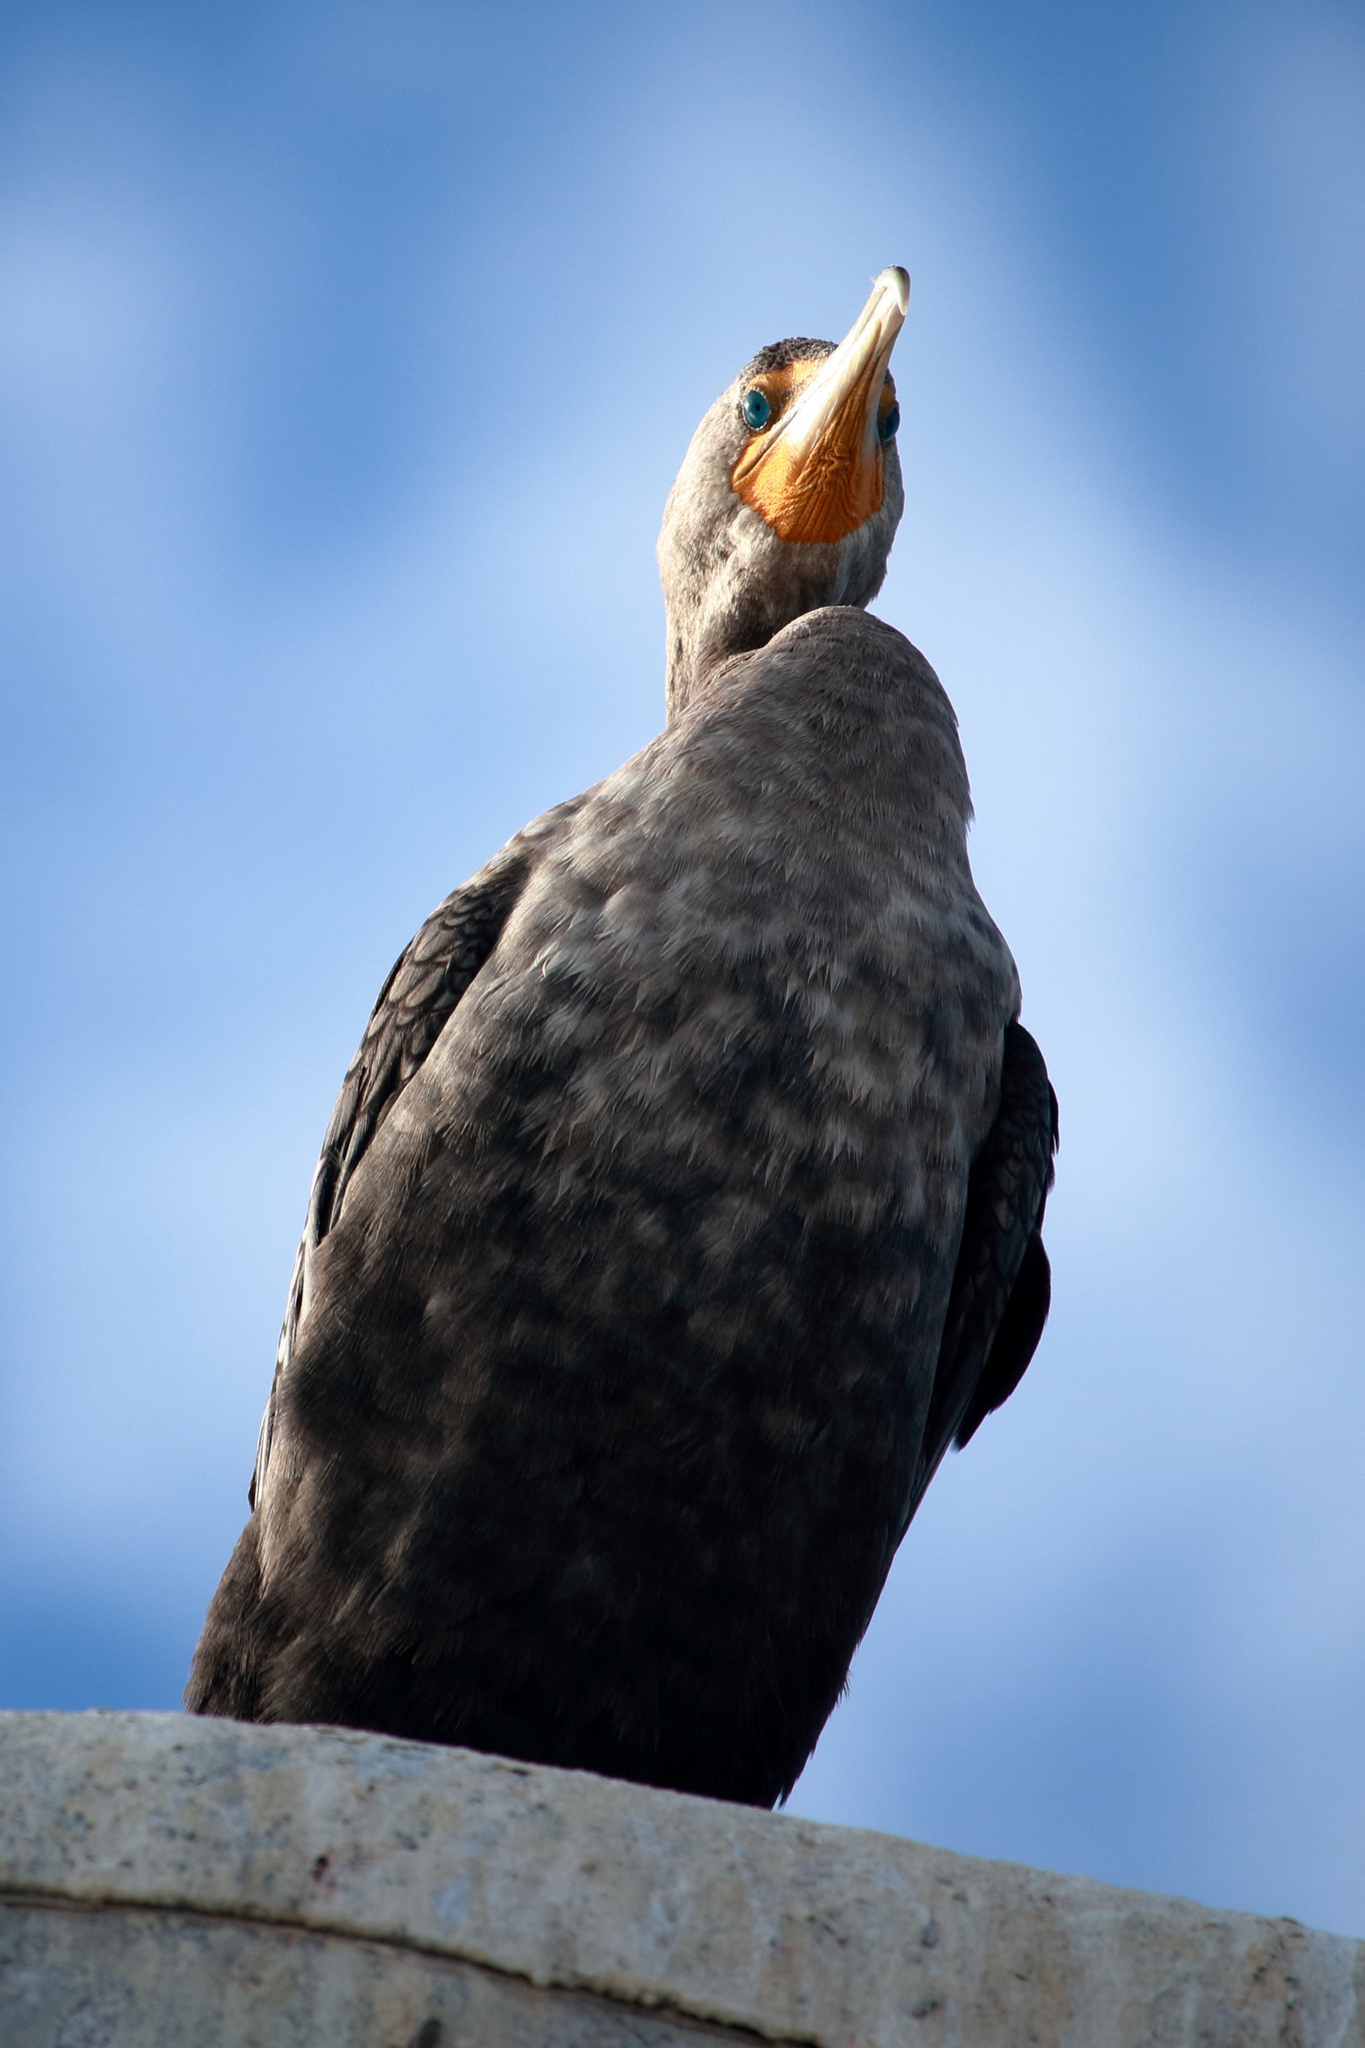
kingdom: Animalia
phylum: Chordata
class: Aves
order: Suliformes
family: Phalacrocoracidae
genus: Phalacrocorax
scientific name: Phalacrocorax auritus
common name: Double-crested cormorant
